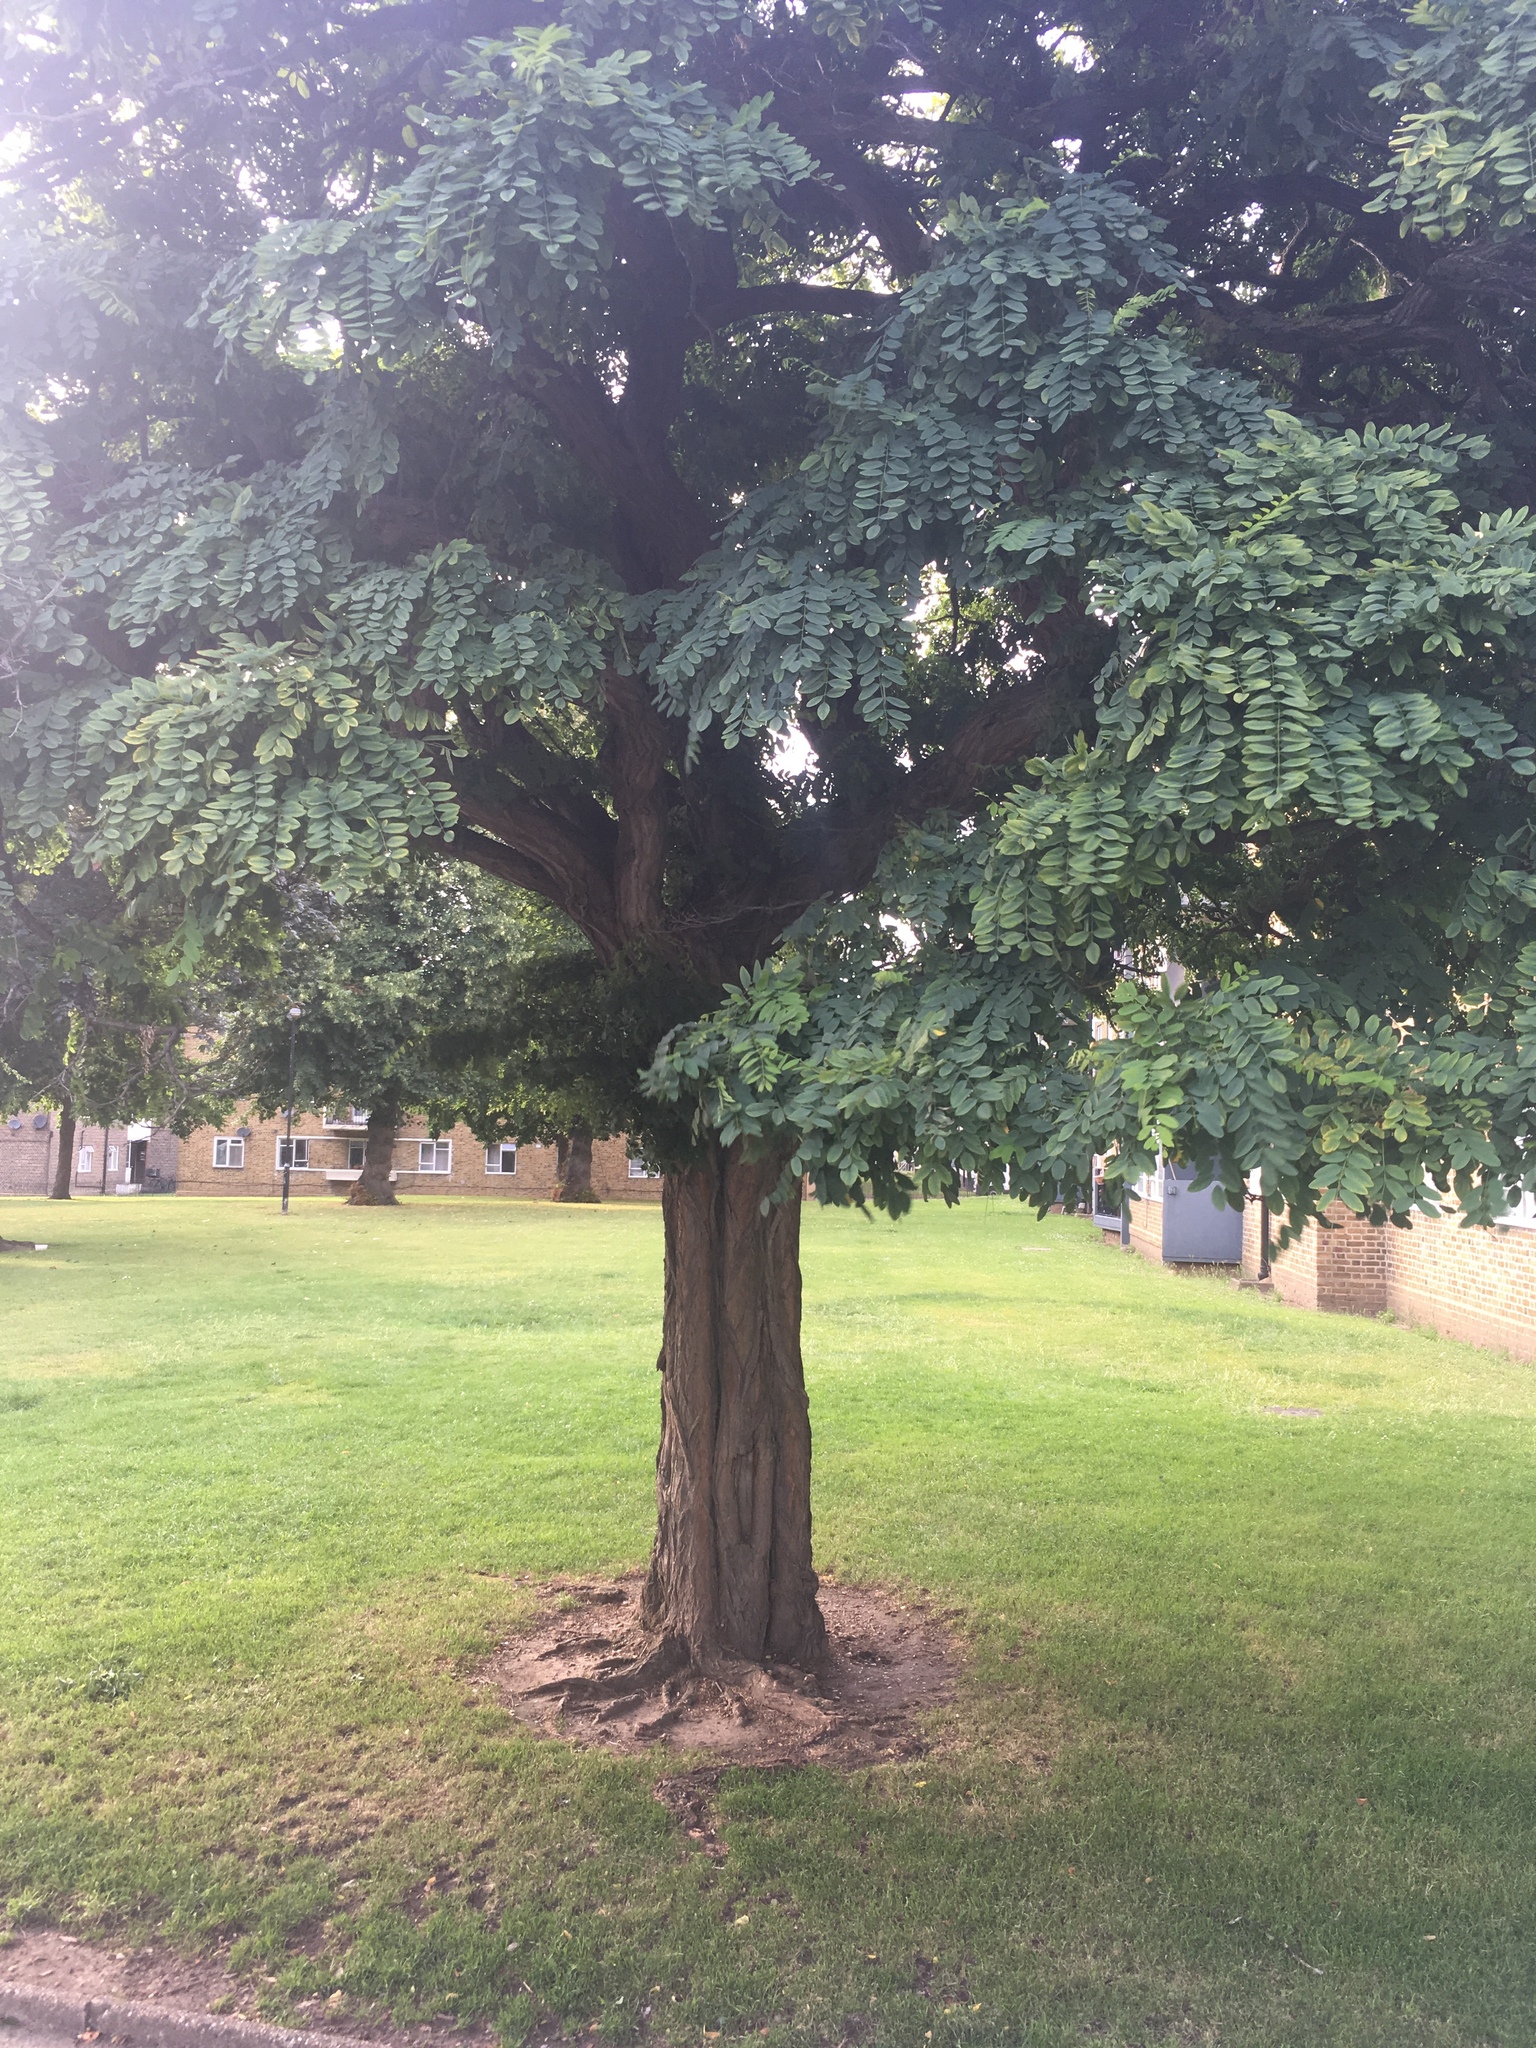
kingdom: Plantae
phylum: Tracheophyta
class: Magnoliopsida
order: Fabales
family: Fabaceae
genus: Robinia
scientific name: Robinia pseudoacacia
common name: Black locust
